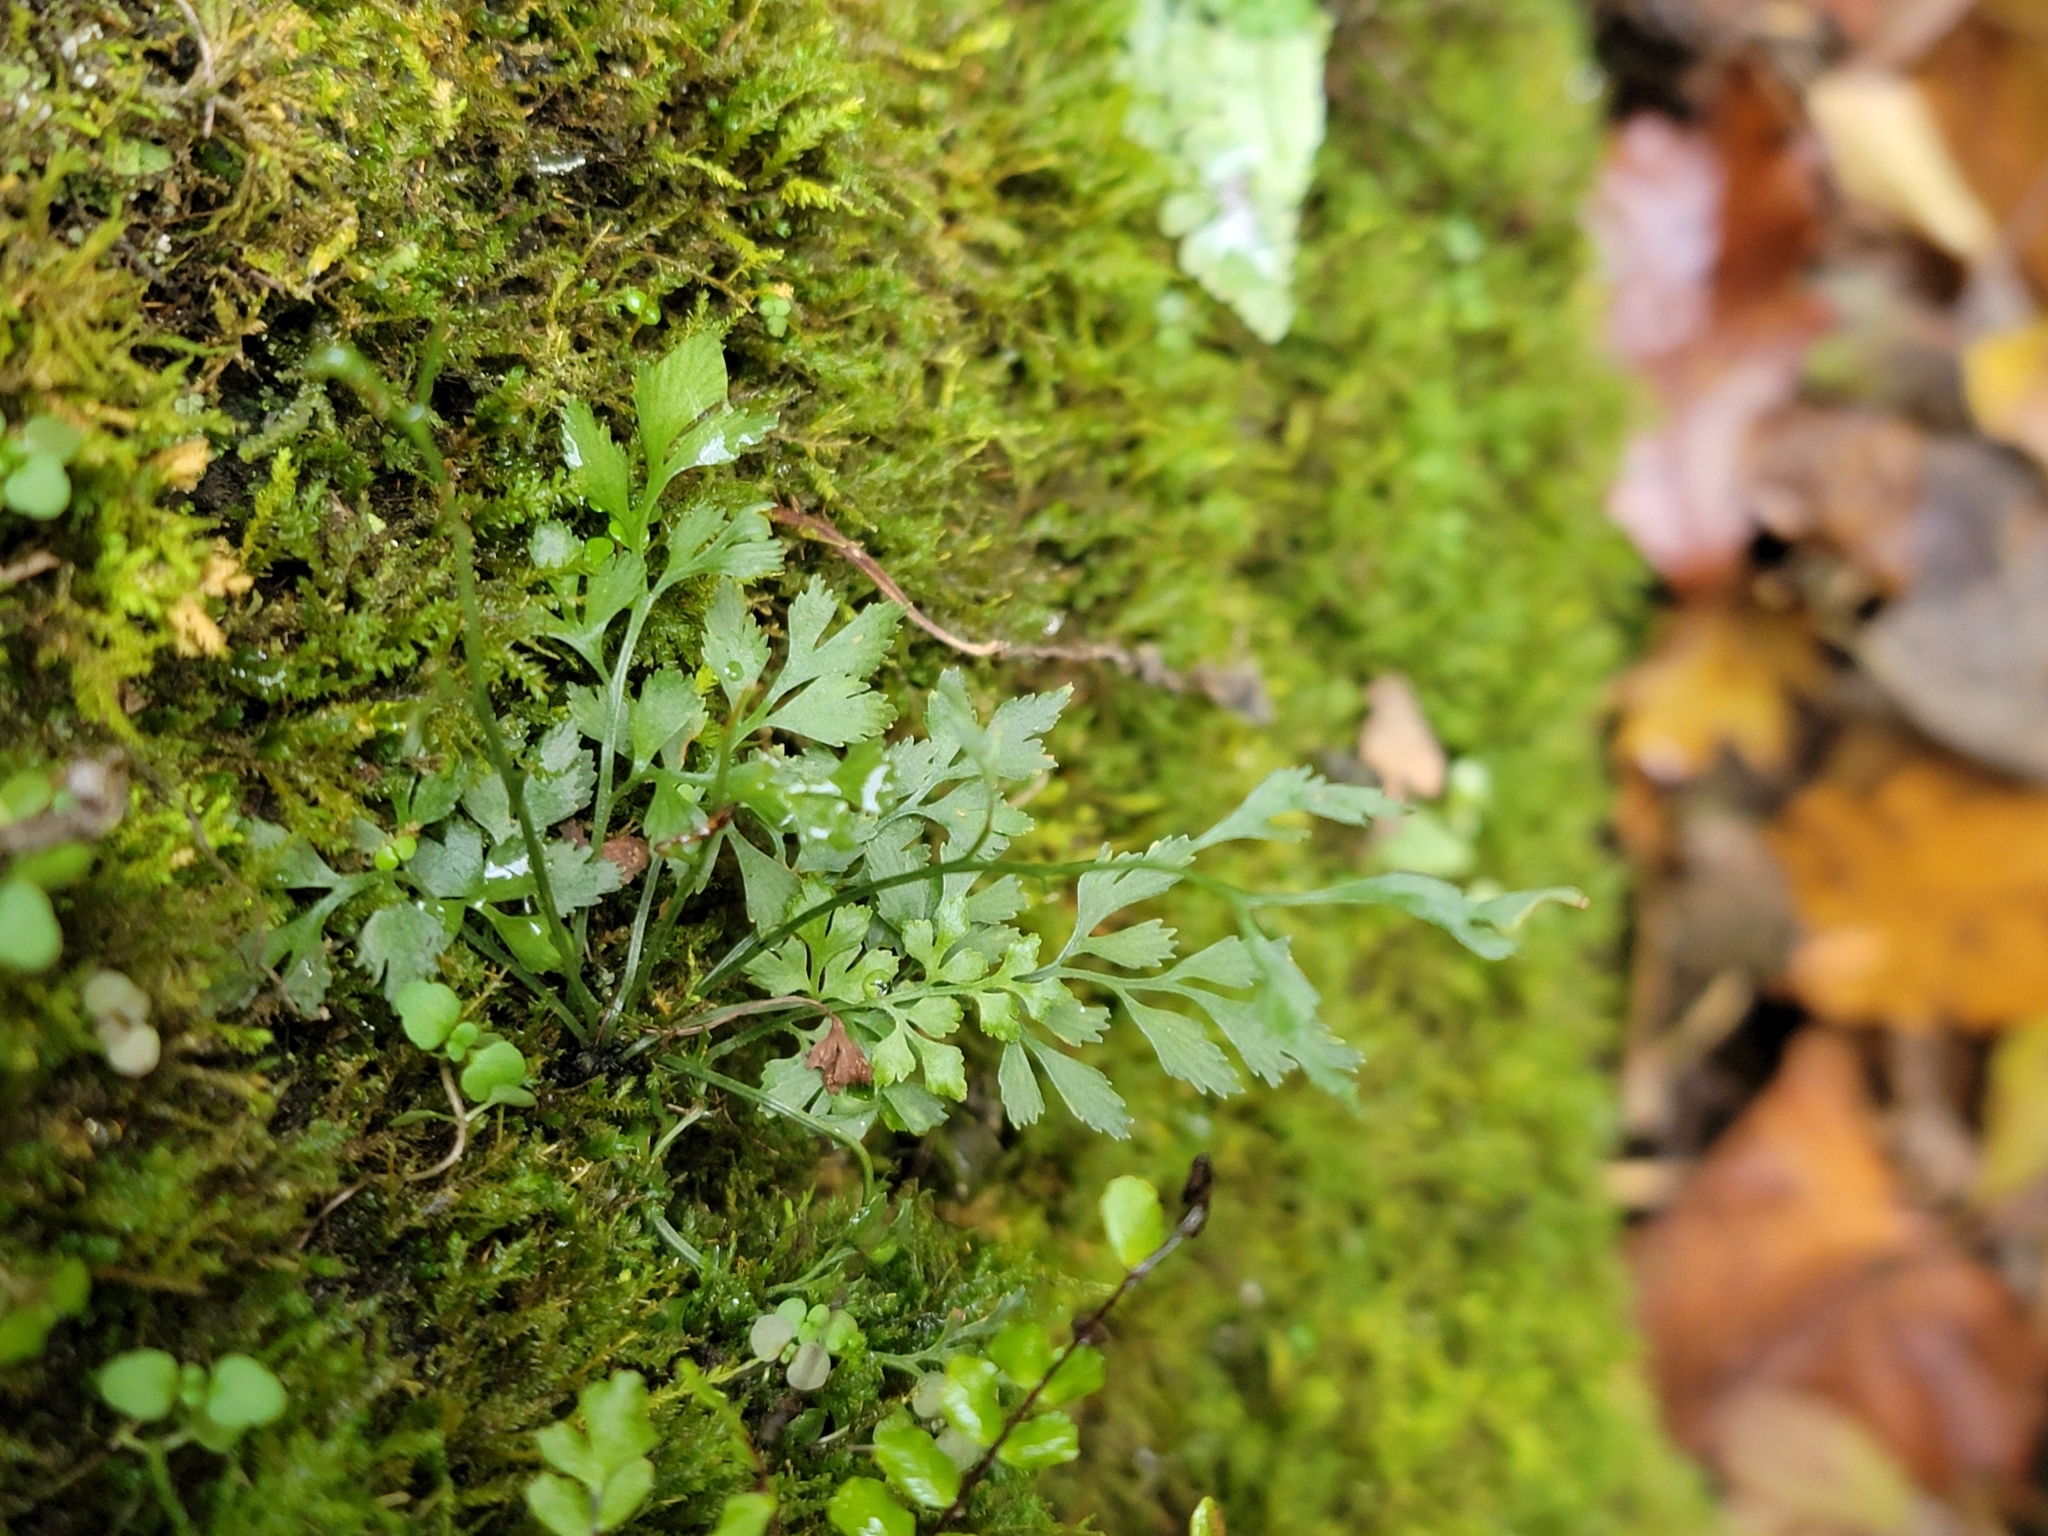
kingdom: Plantae
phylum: Tracheophyta
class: Polypodiopsida
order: Polypodiales
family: Aspleniaceae
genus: Asplenium
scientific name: Asplenium ruta-muraria
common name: Wall-rue
